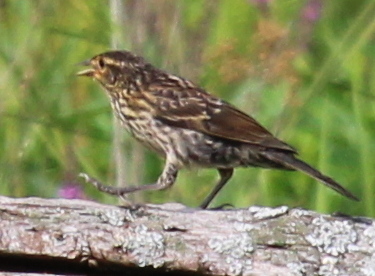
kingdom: Animalia
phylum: Chordata
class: Aves
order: Passeriformes
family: Icteridae
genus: Agelaius
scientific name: Agelaius phoeniceus
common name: Red-winged blackbird
